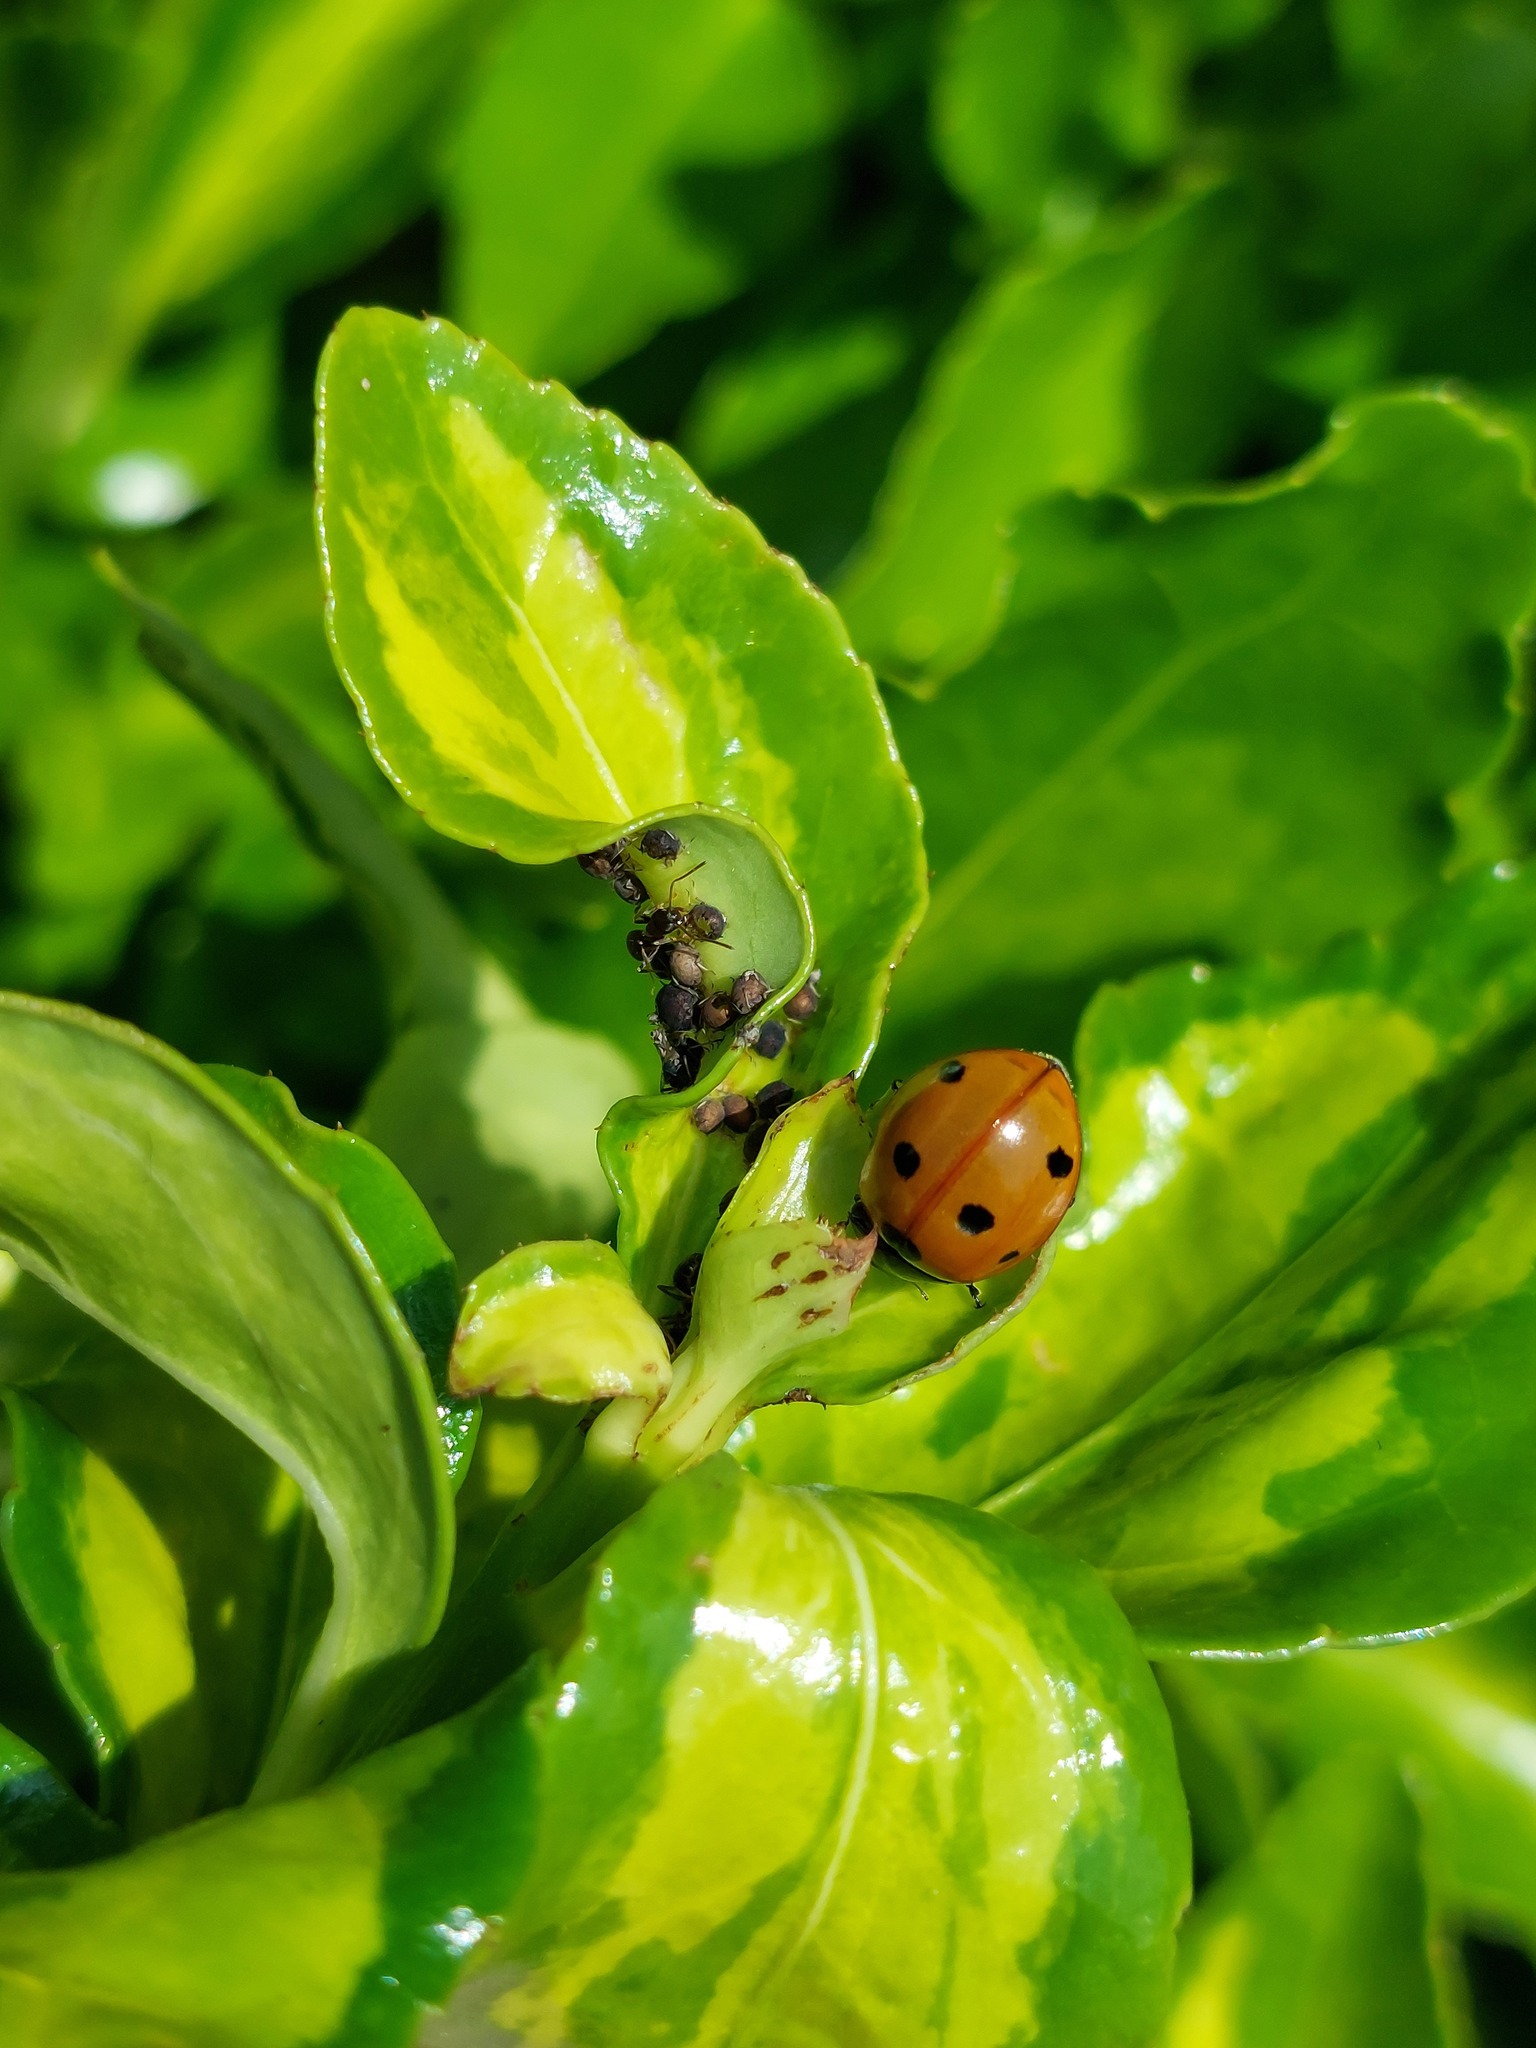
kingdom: Animalia
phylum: Arthropoda
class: Insecta
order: Coleoptera
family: Coccinellidae
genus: Coccinella
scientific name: Coccinella septempunctata
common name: Sevenspotted lady beetle
